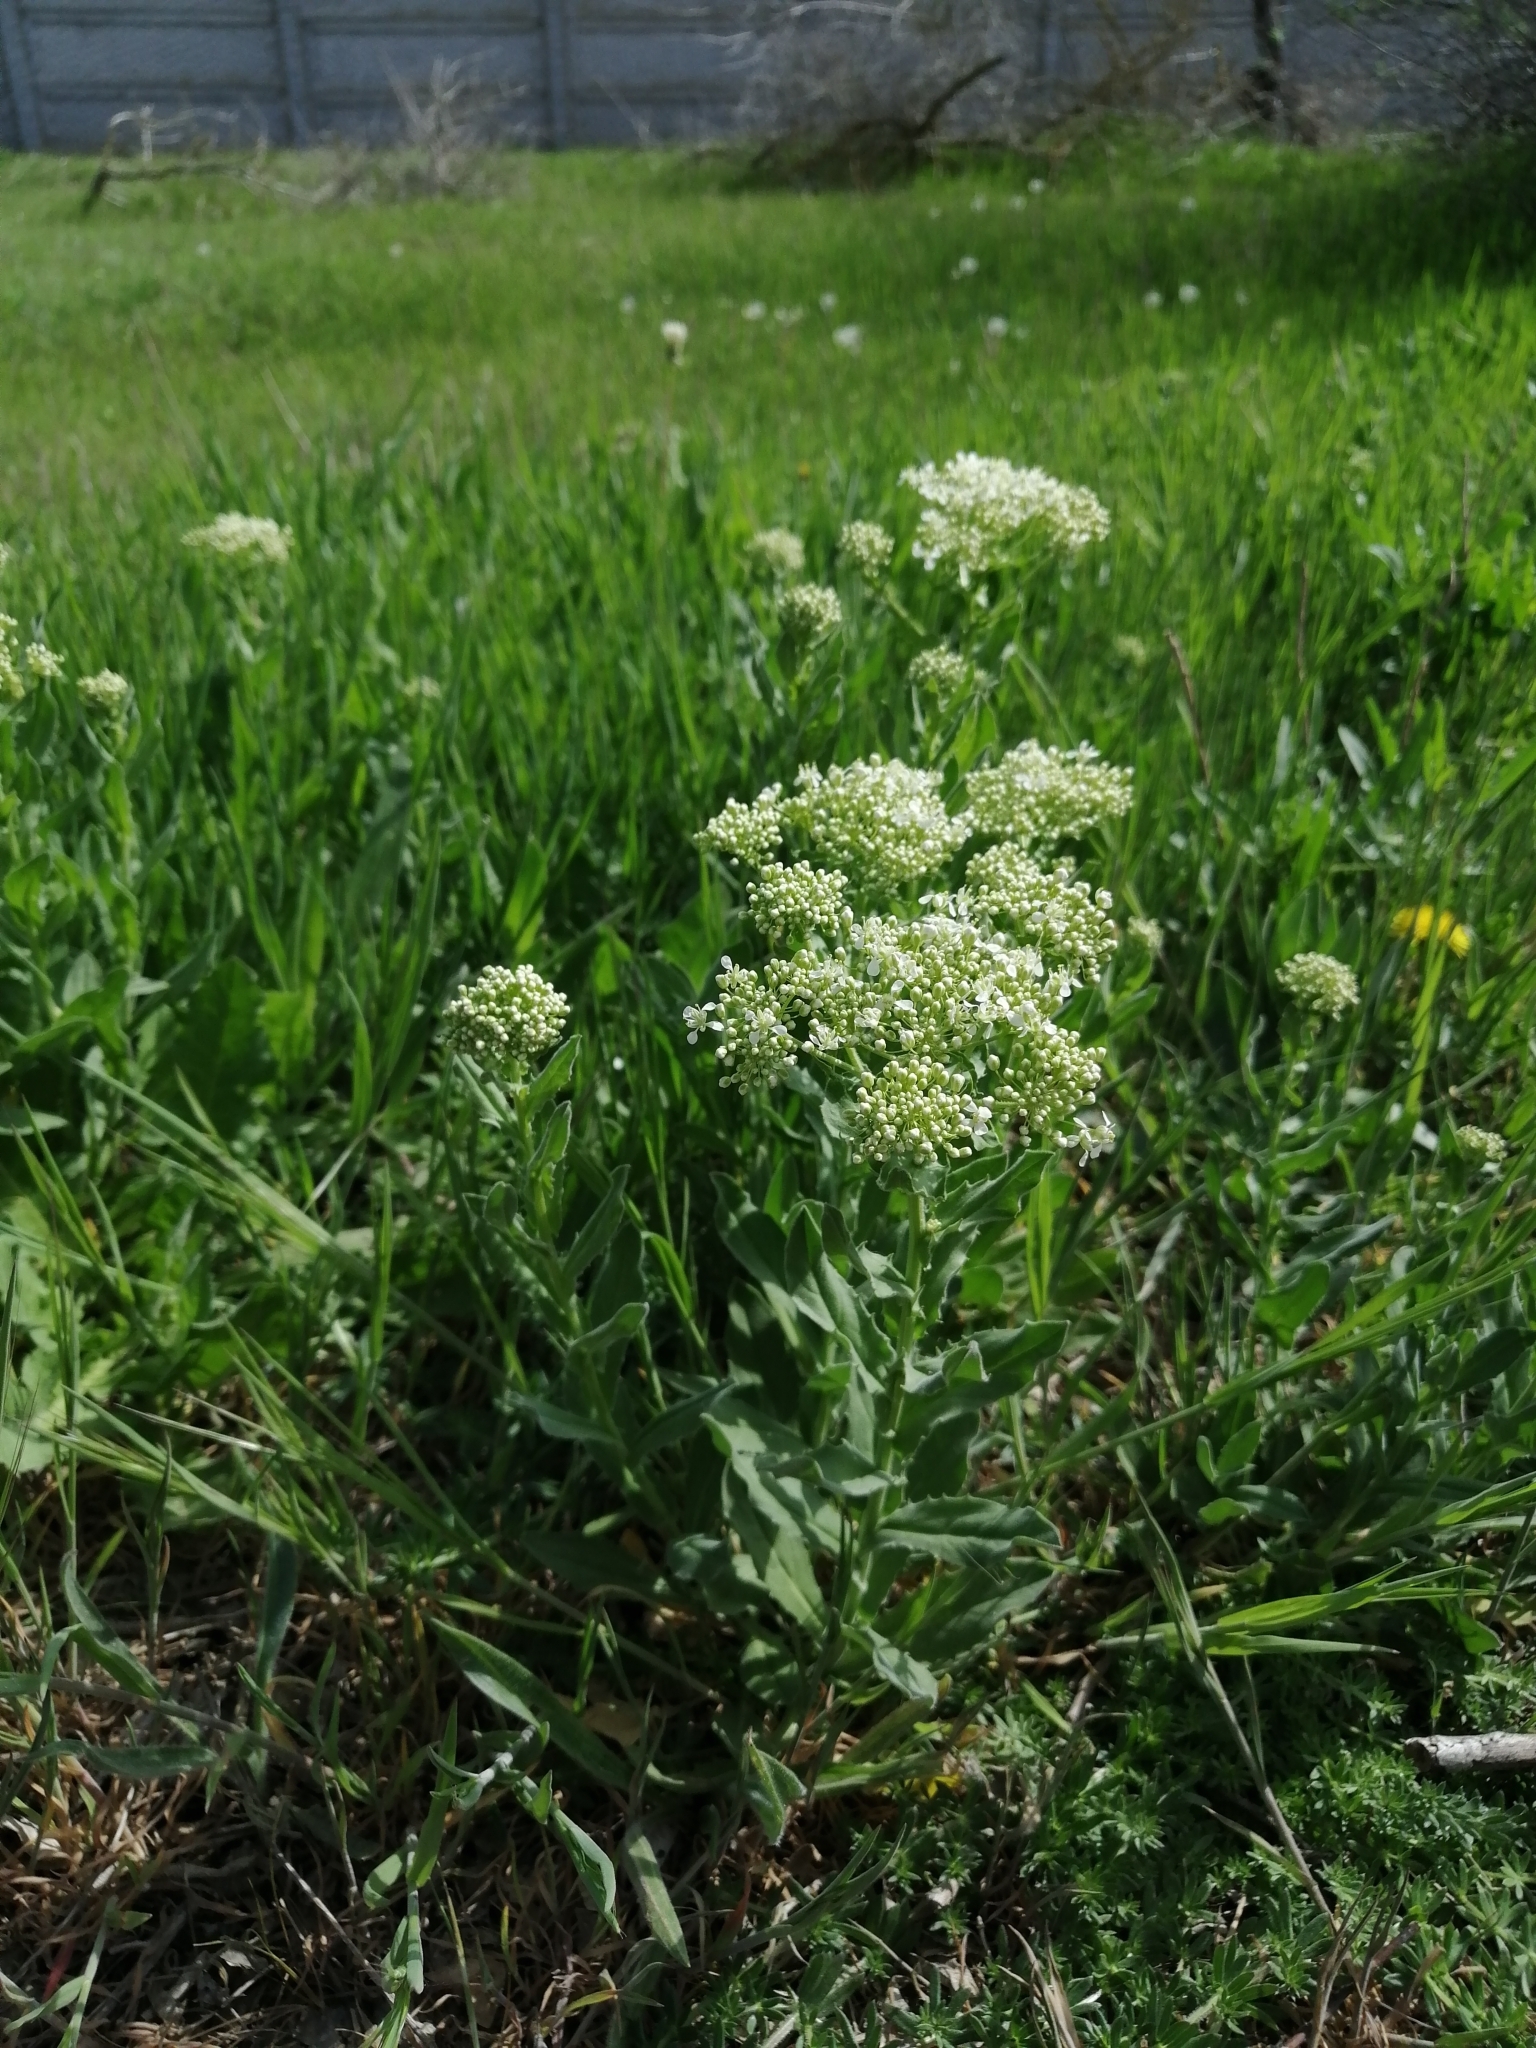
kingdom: Plantae
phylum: Tracheophyta
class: Magnoliopsida
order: Brassicales
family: Brassicaceae
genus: Lepidium
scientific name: Lepidium draba
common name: Hoary cress
